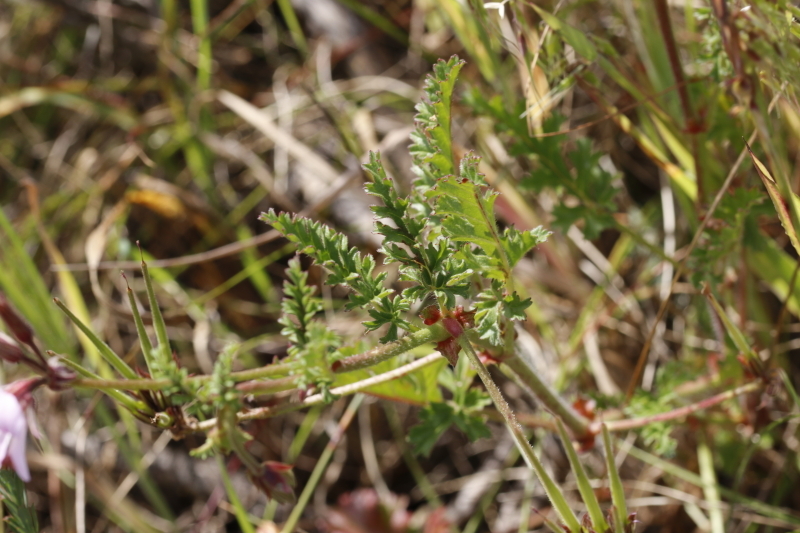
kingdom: Plantae
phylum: Tracheophyta
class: Magnoliopsida
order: Geraniales
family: Geraniaceae
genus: Pelargonium
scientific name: Pelargonium myrrhifolium
